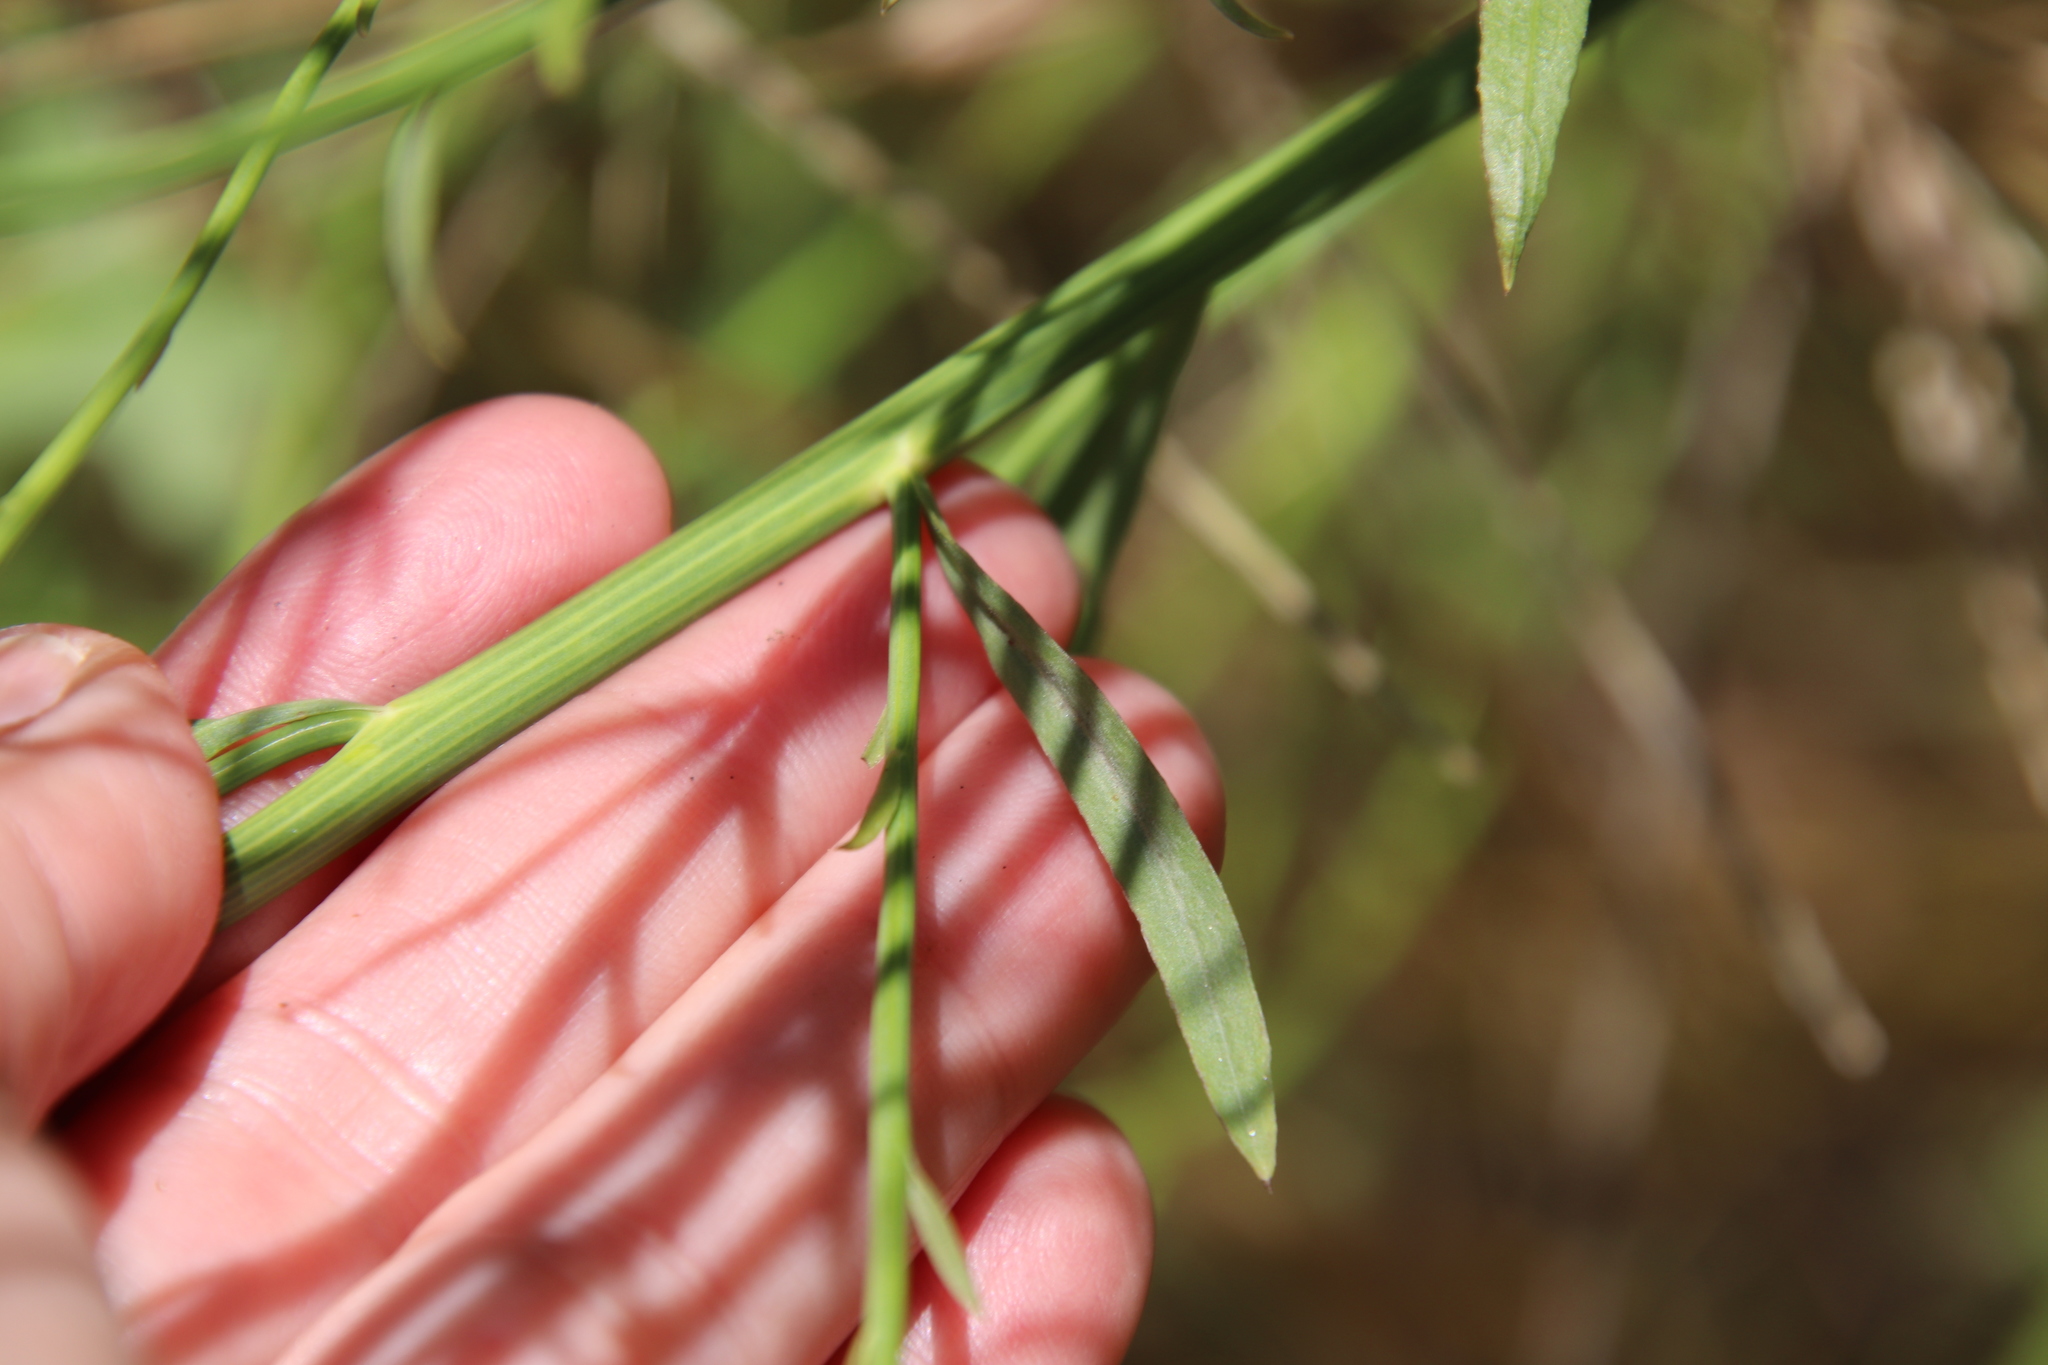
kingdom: Plantae
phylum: Tracheophyta
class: Magnoliopsida
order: Asterales
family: Asteraceae
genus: Chloracantha
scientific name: Chloracantha spinosa
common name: Mexican devilweed
